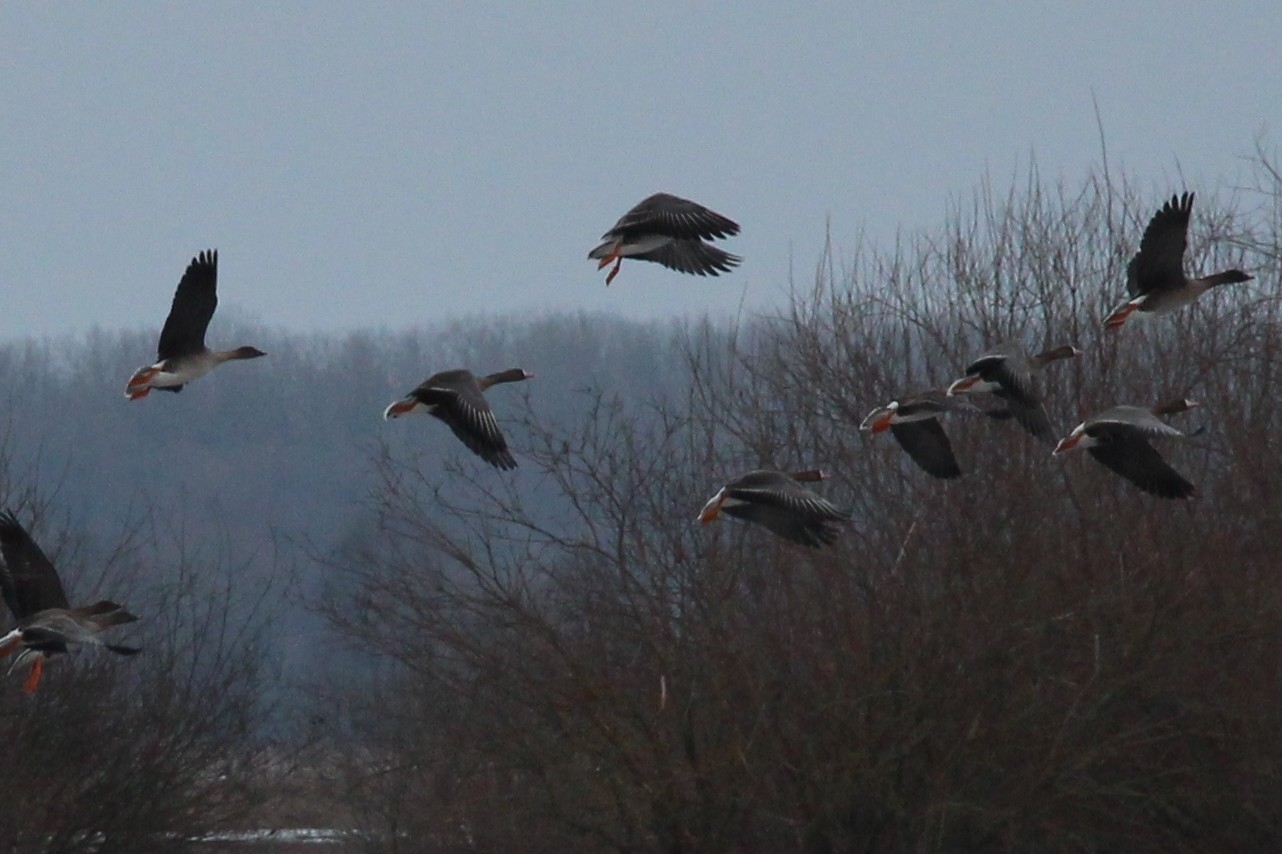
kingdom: Animalia
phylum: Chordata
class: Aves
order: Anseriformes
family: Anatidae
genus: Anser
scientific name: Anser albifrons
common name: Greater white-fronted goose
